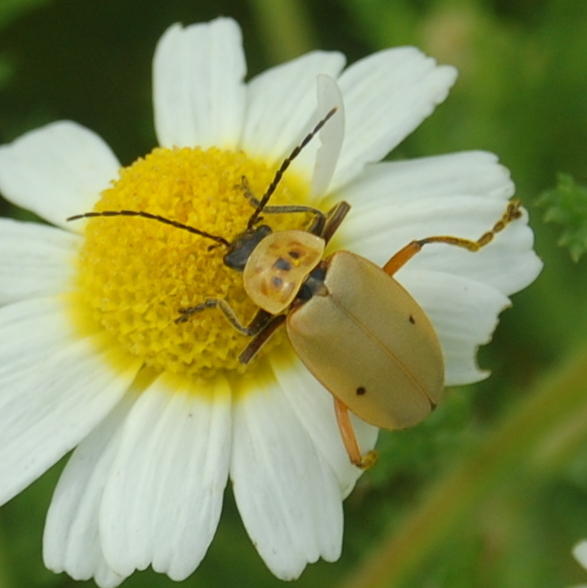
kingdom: Animalia
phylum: Arthropoda
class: Insecta
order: Coleoptera
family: Cantharidae
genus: Chauliognathus
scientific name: Chauliognathus
